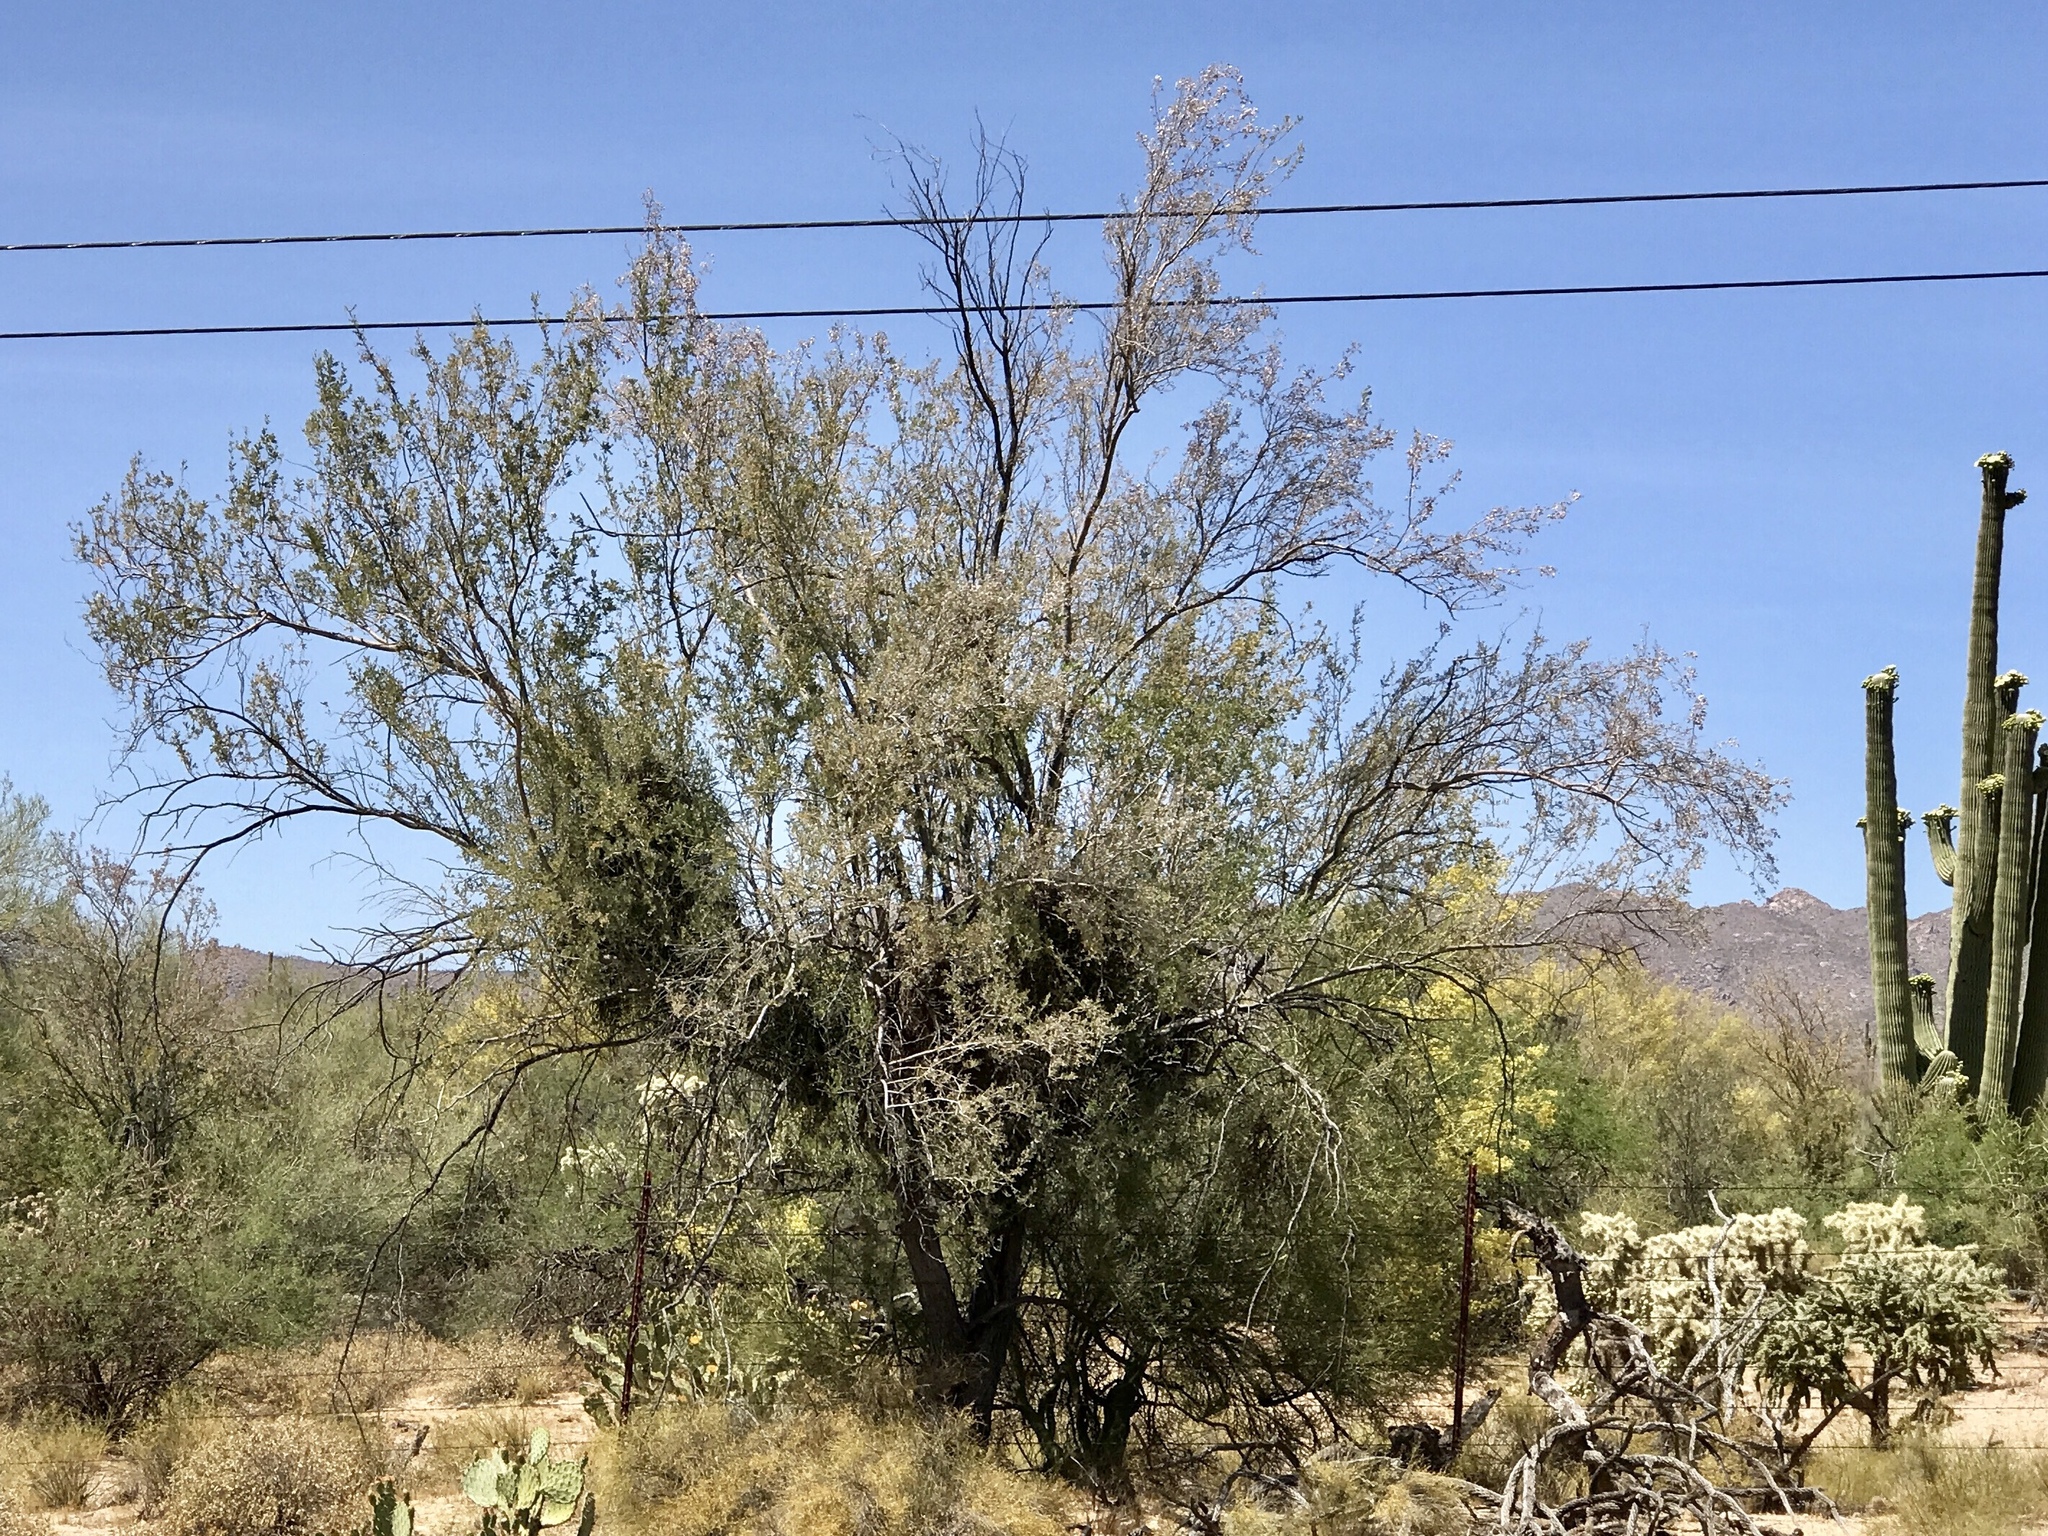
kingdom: Plantae
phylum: Tracheophyta
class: Magnoliopsida
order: Fabales
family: Fabaceae
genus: Olneya
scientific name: Olneya tesota
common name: Desert ironwood
